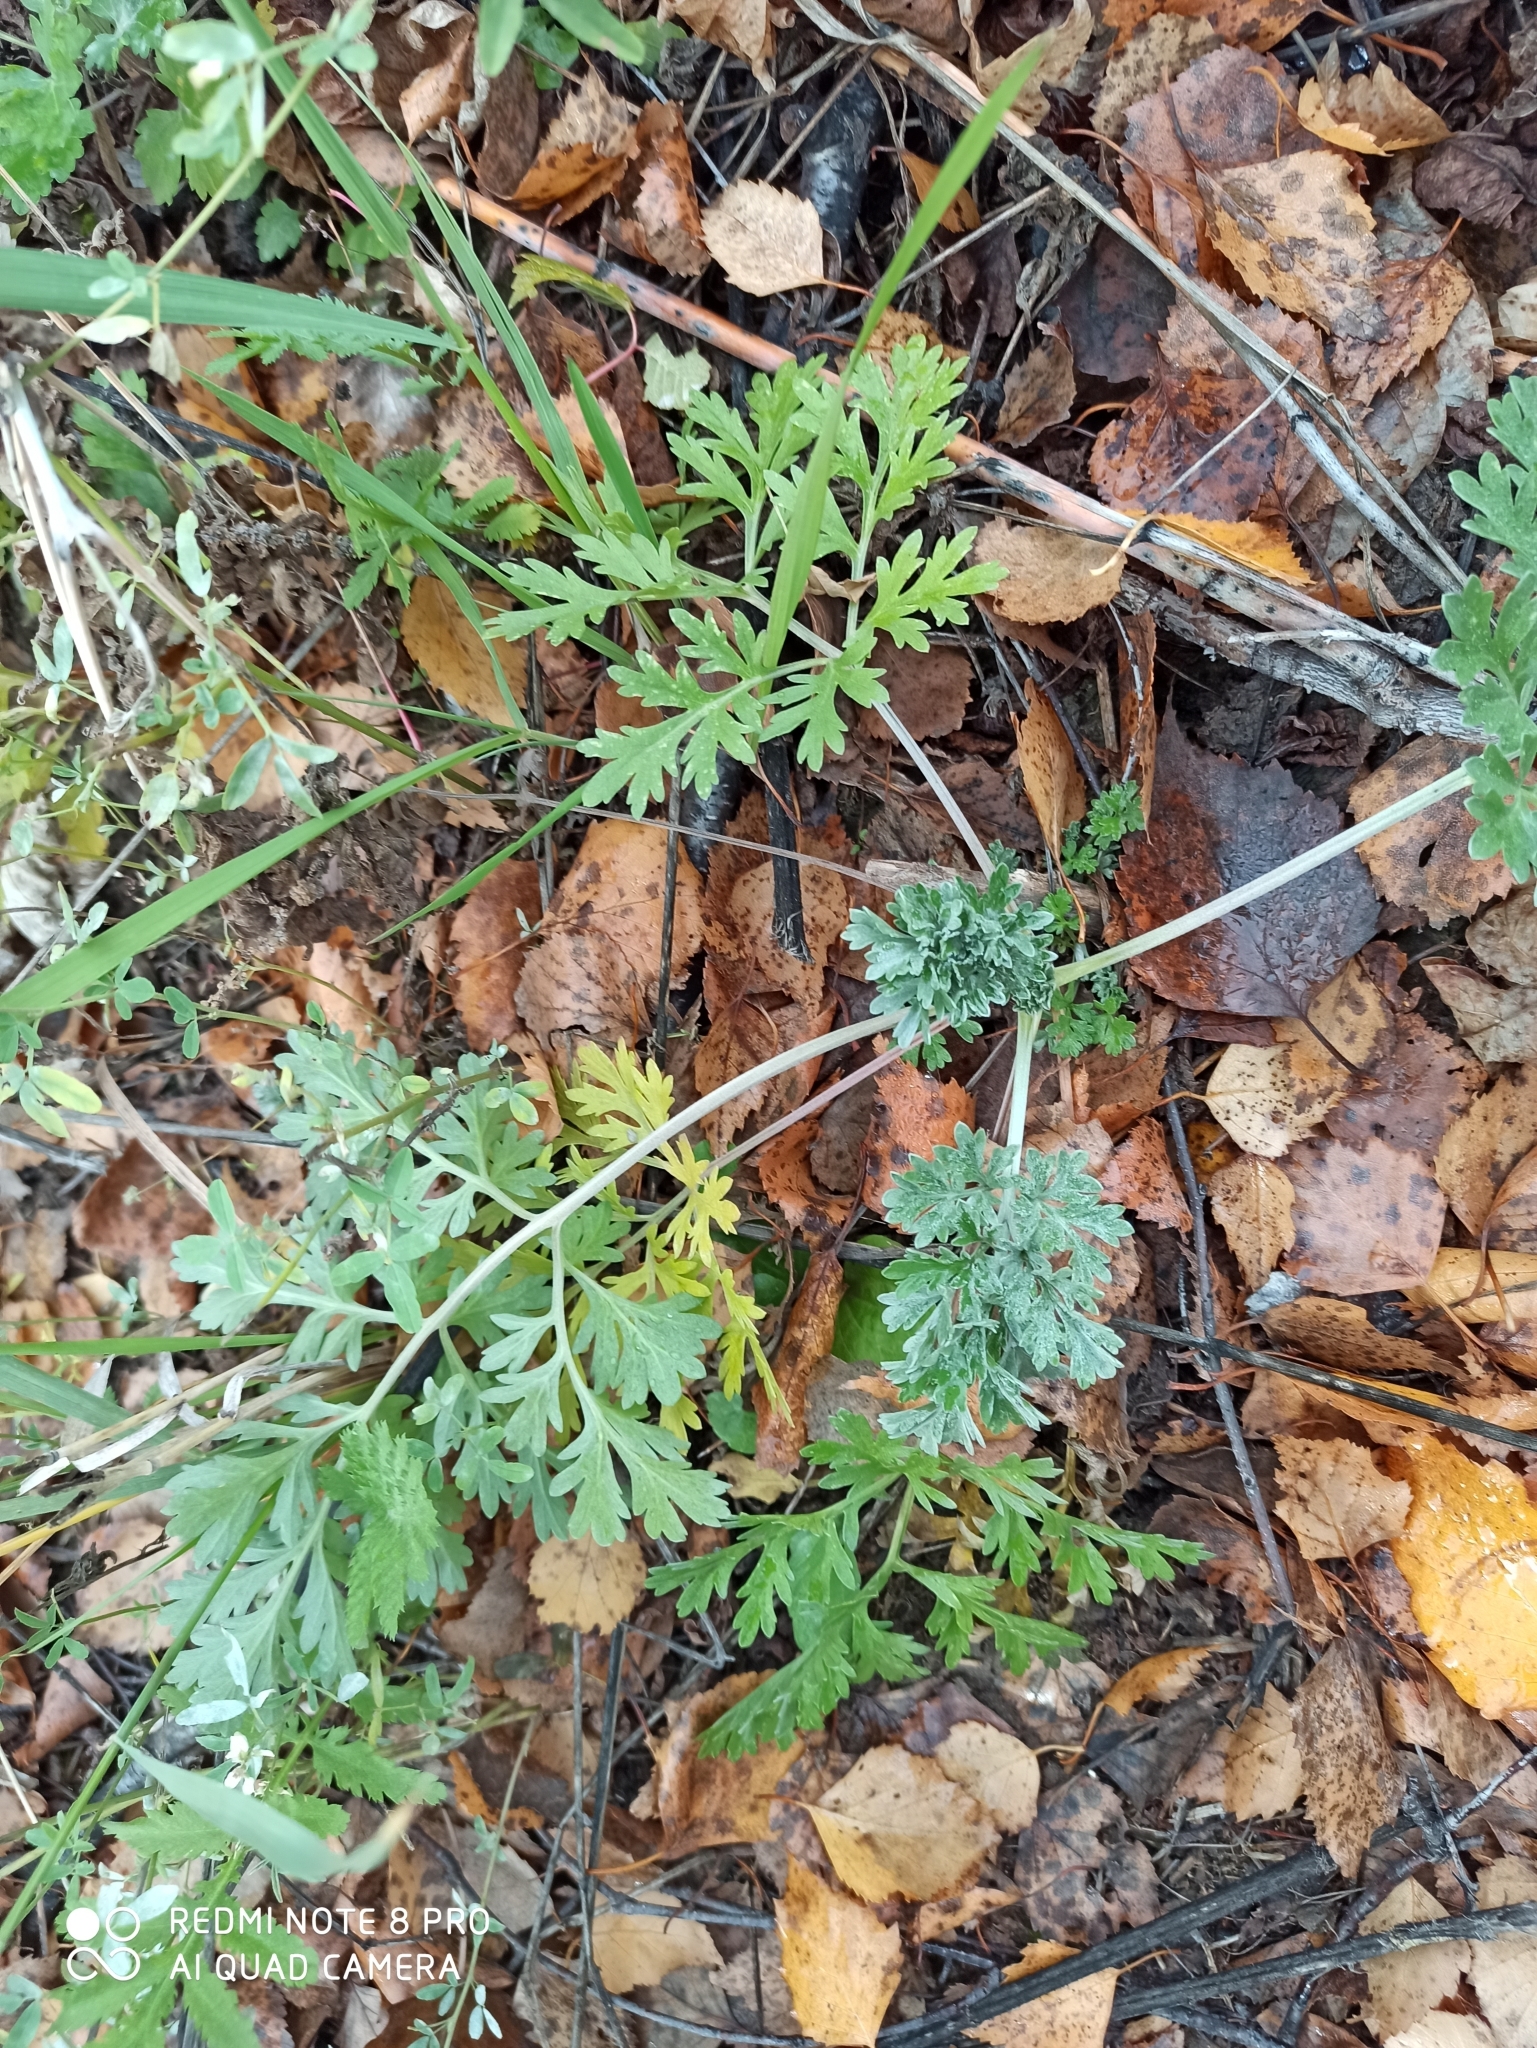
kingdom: Plantae
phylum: Tracheophyta
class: Magnoliopsida
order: Asterales
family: Asteraceae
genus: Artemisia
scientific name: Artemisia absinthium
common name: Wormwood
